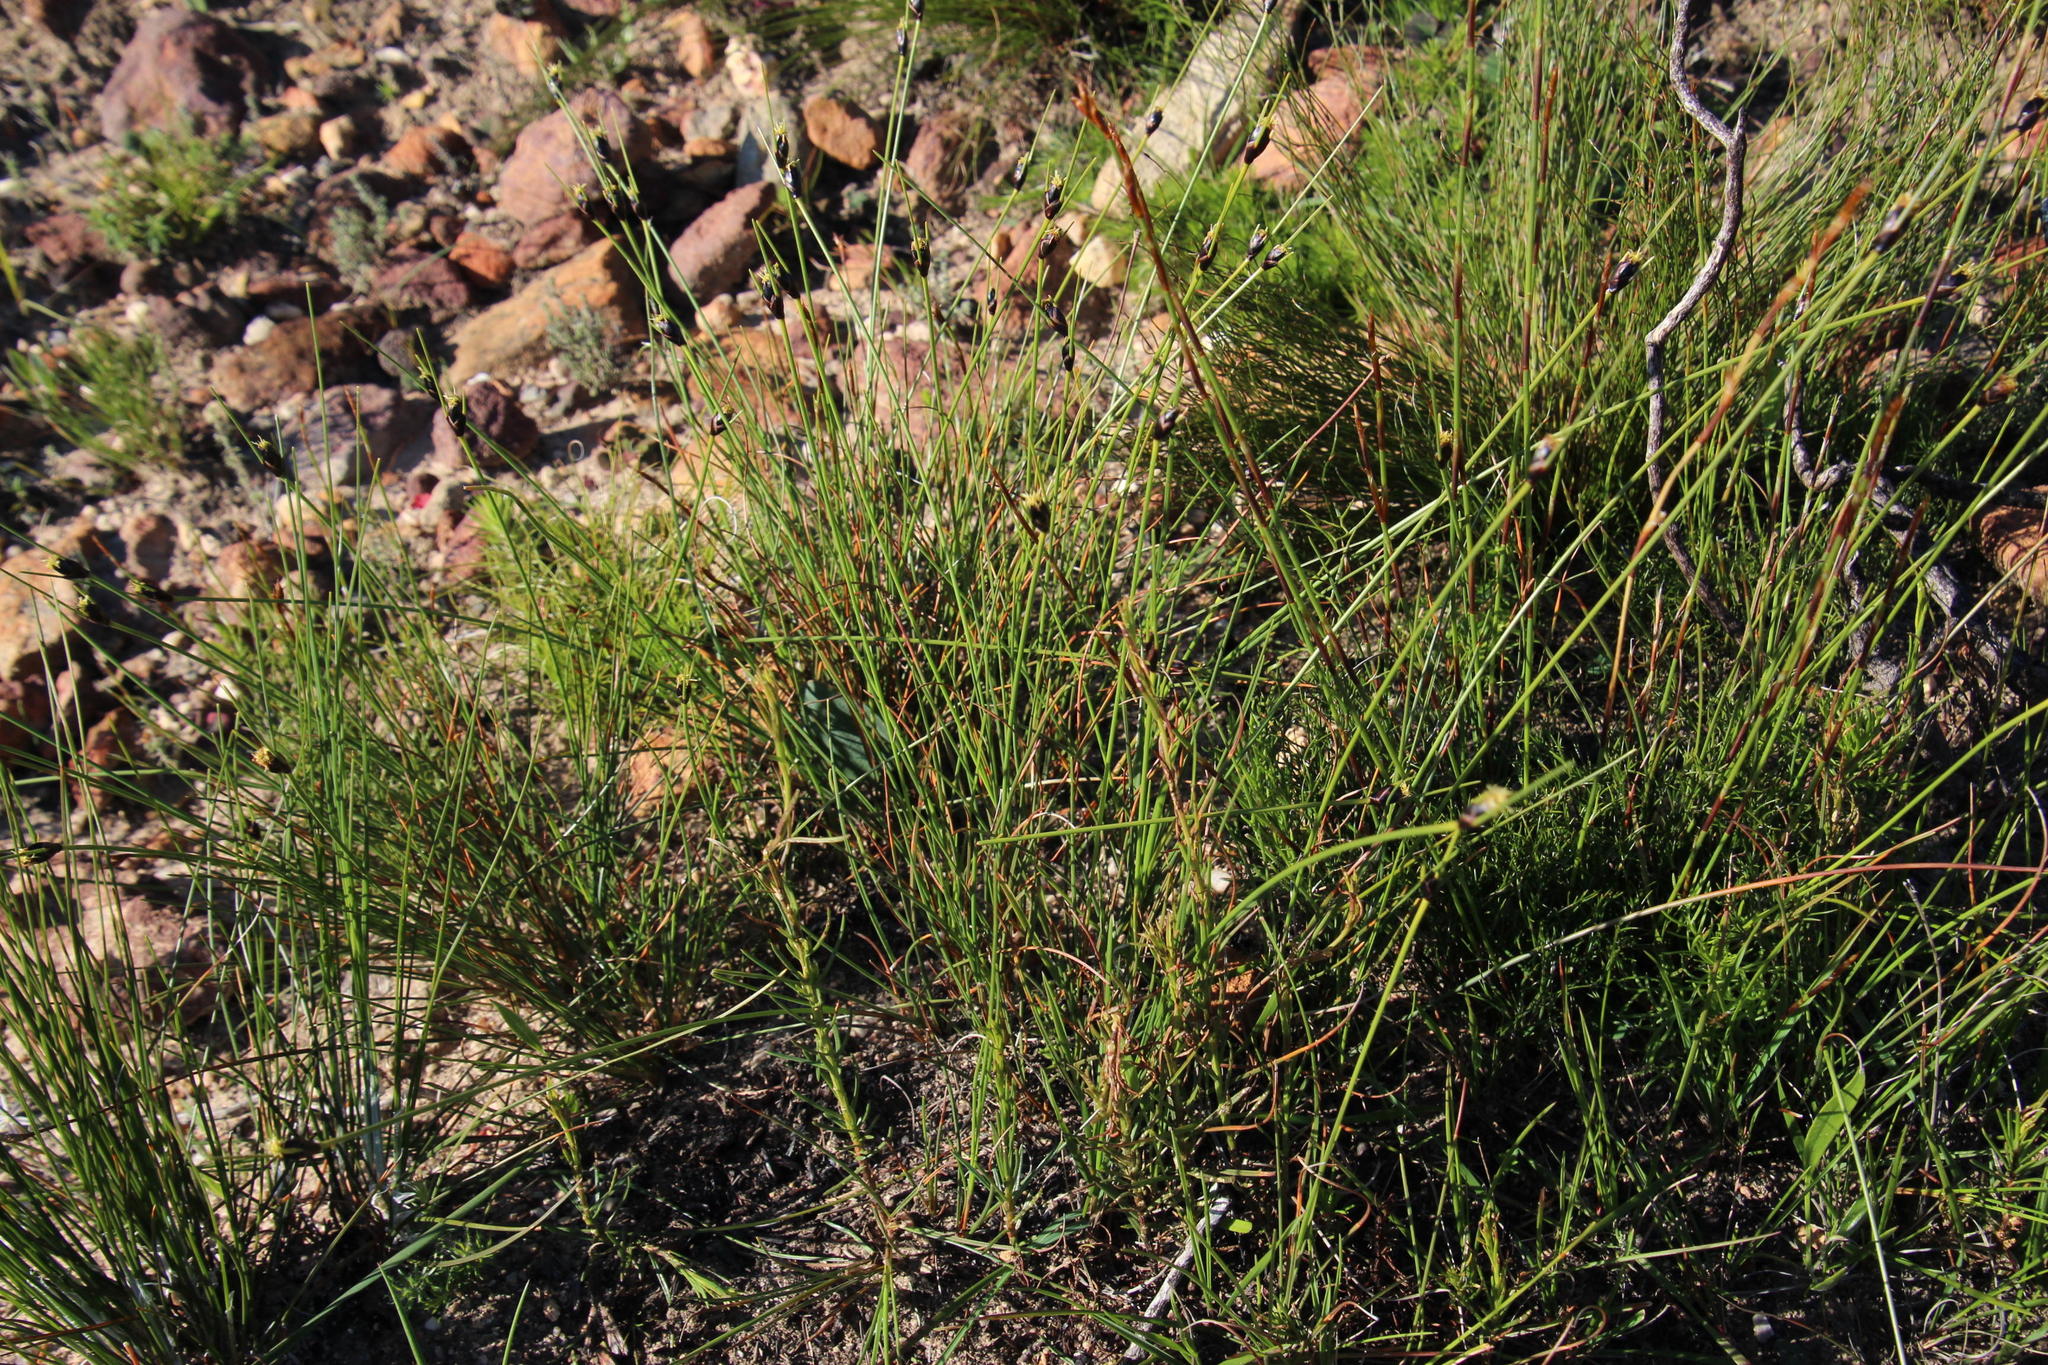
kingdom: Plantae
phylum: Tracheophyta
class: Liliopsida
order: Poales
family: Cyperaceae
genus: Ficinia
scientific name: Ficinia levynsiae
